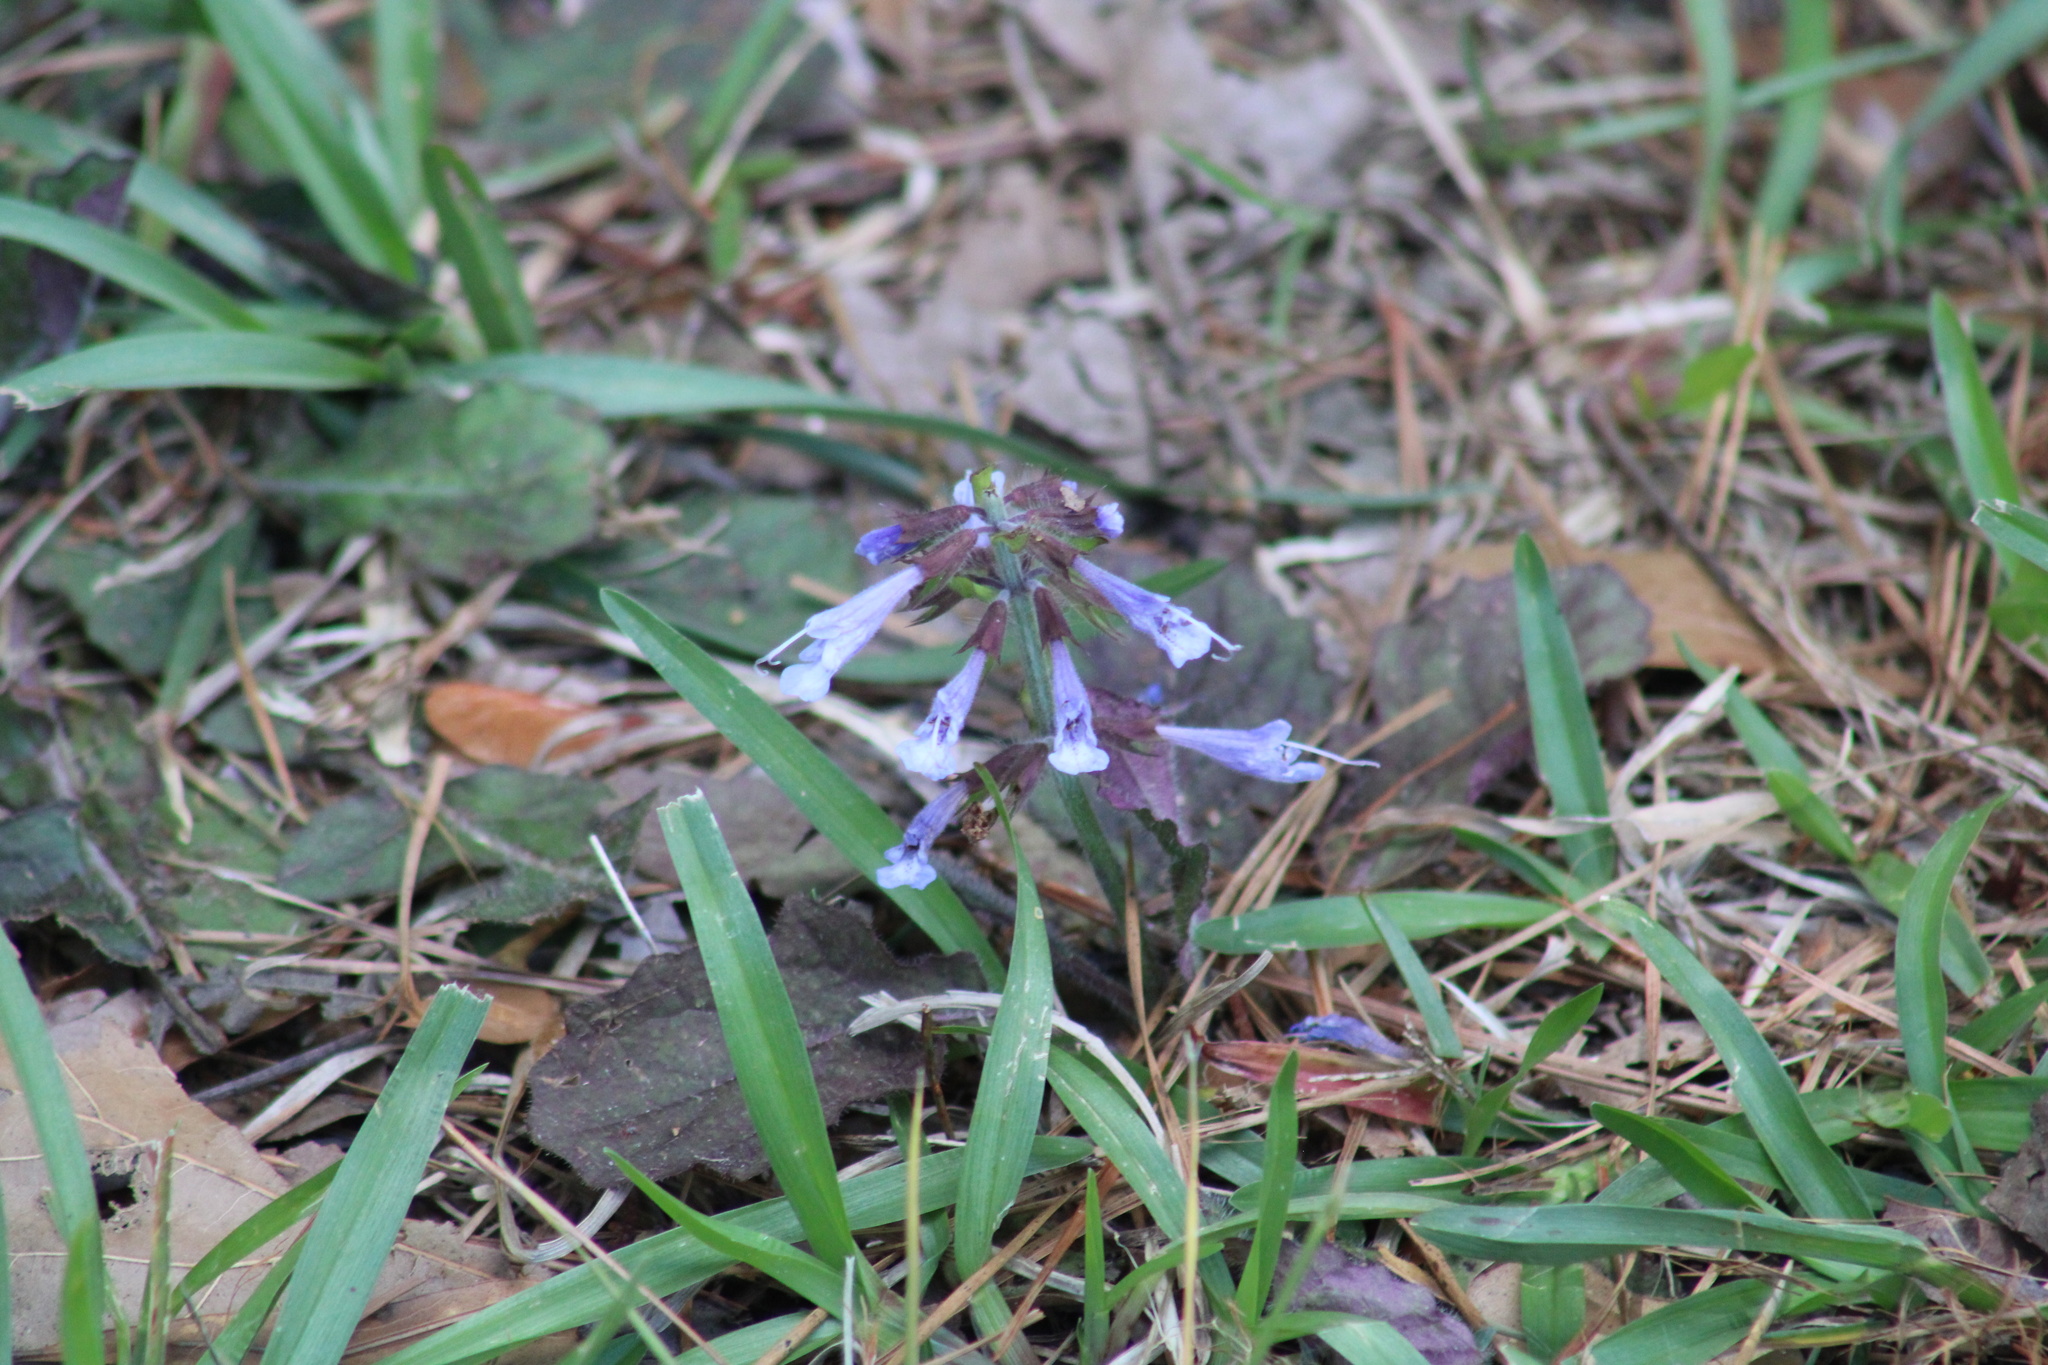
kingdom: Plantae
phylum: Tracheophyta
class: Magnoliopsida
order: Lamiales
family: Lamiaceae
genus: Salvia
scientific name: Salvia lyrata
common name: Cancerweed
